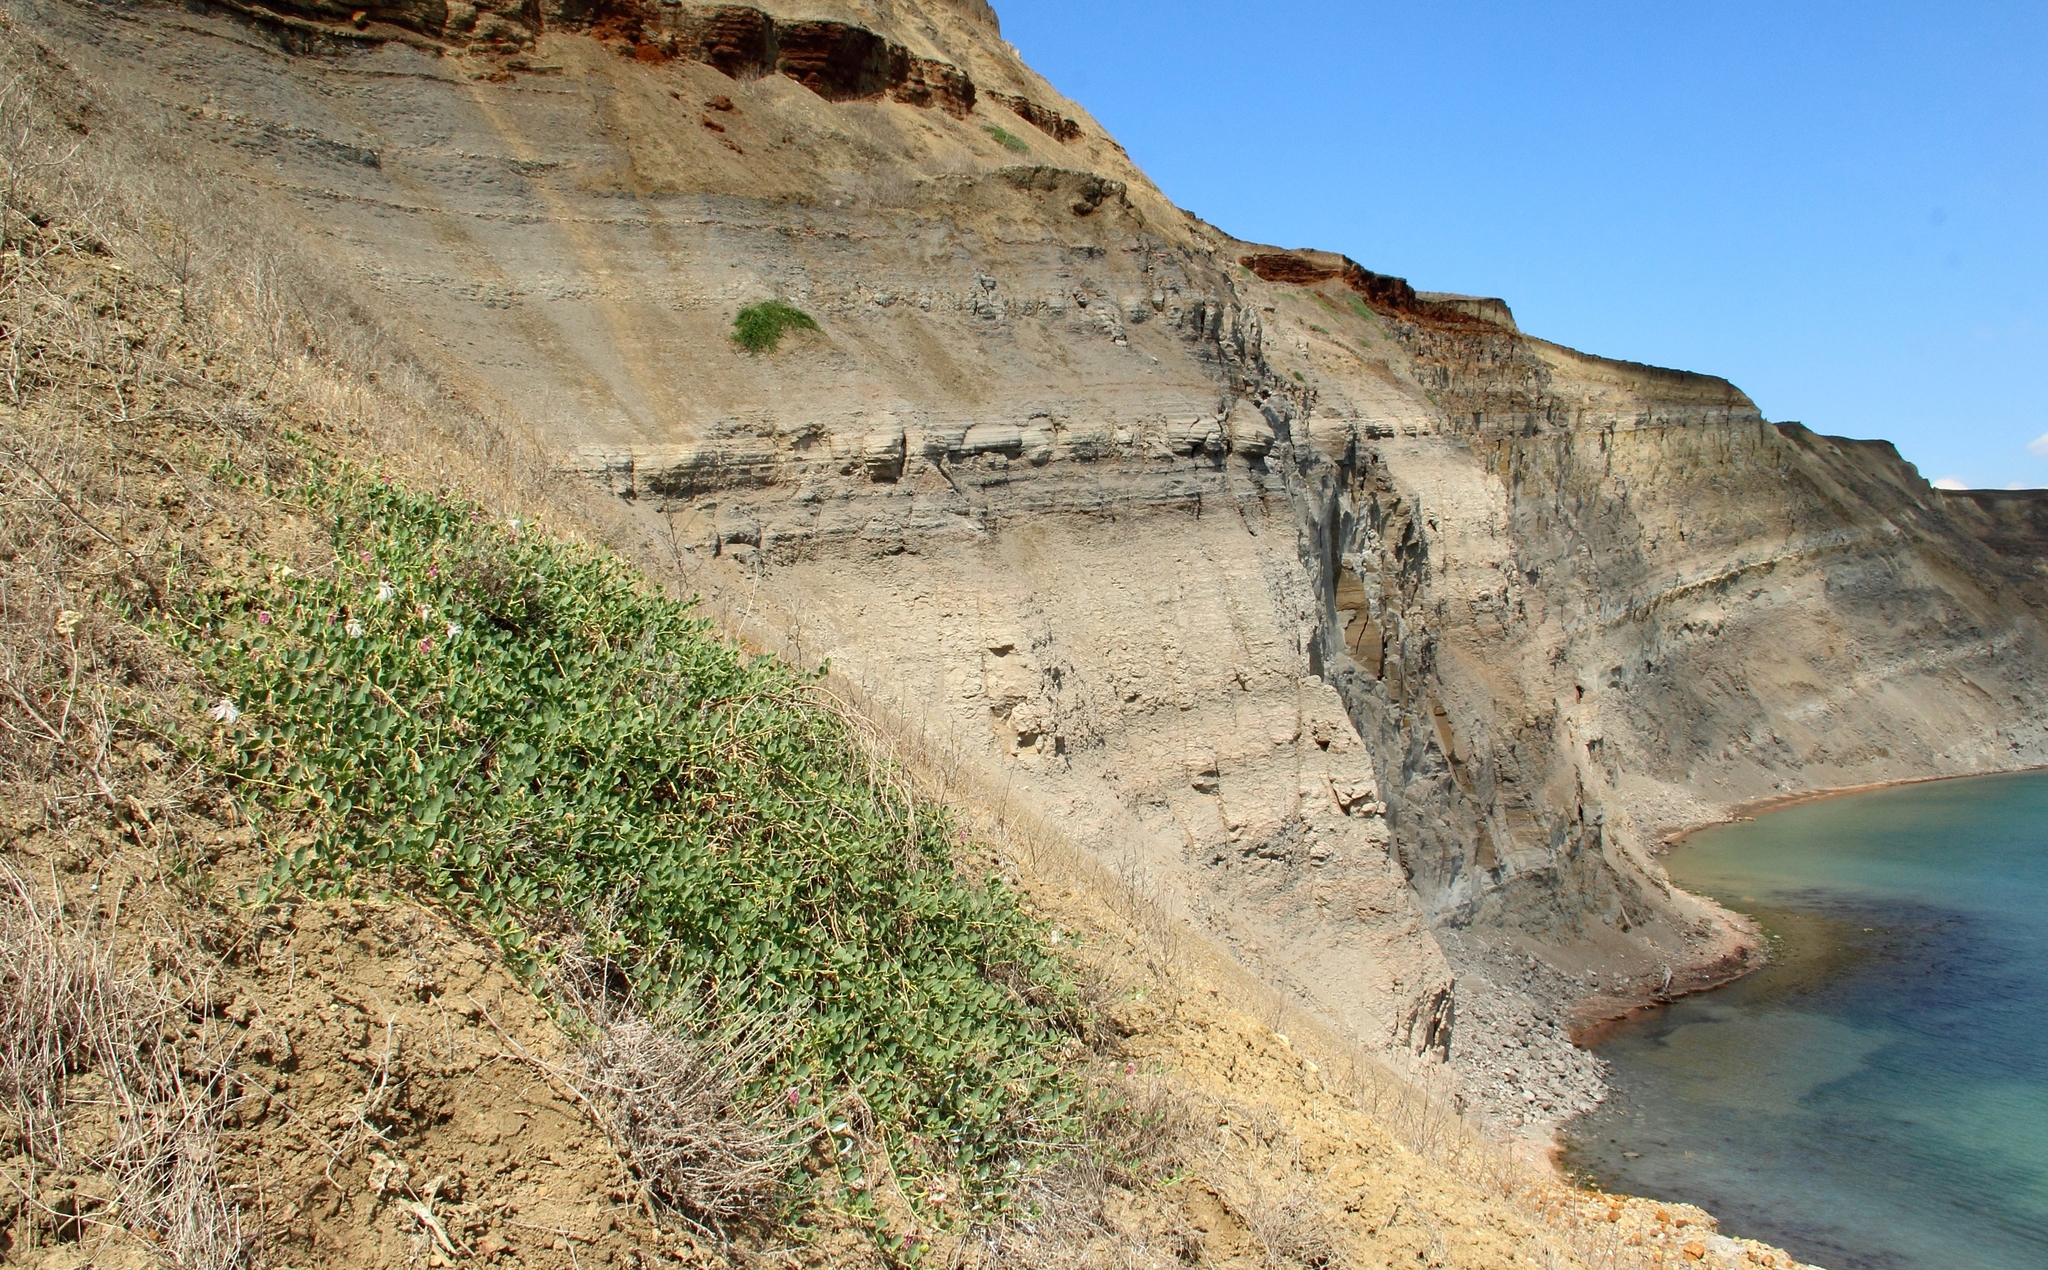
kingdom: Plantae
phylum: Tracheophyta
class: Magnoliopsida
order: Brassicales
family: Capparaceae
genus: Capparis
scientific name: Capparis spinosa
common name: Caper
